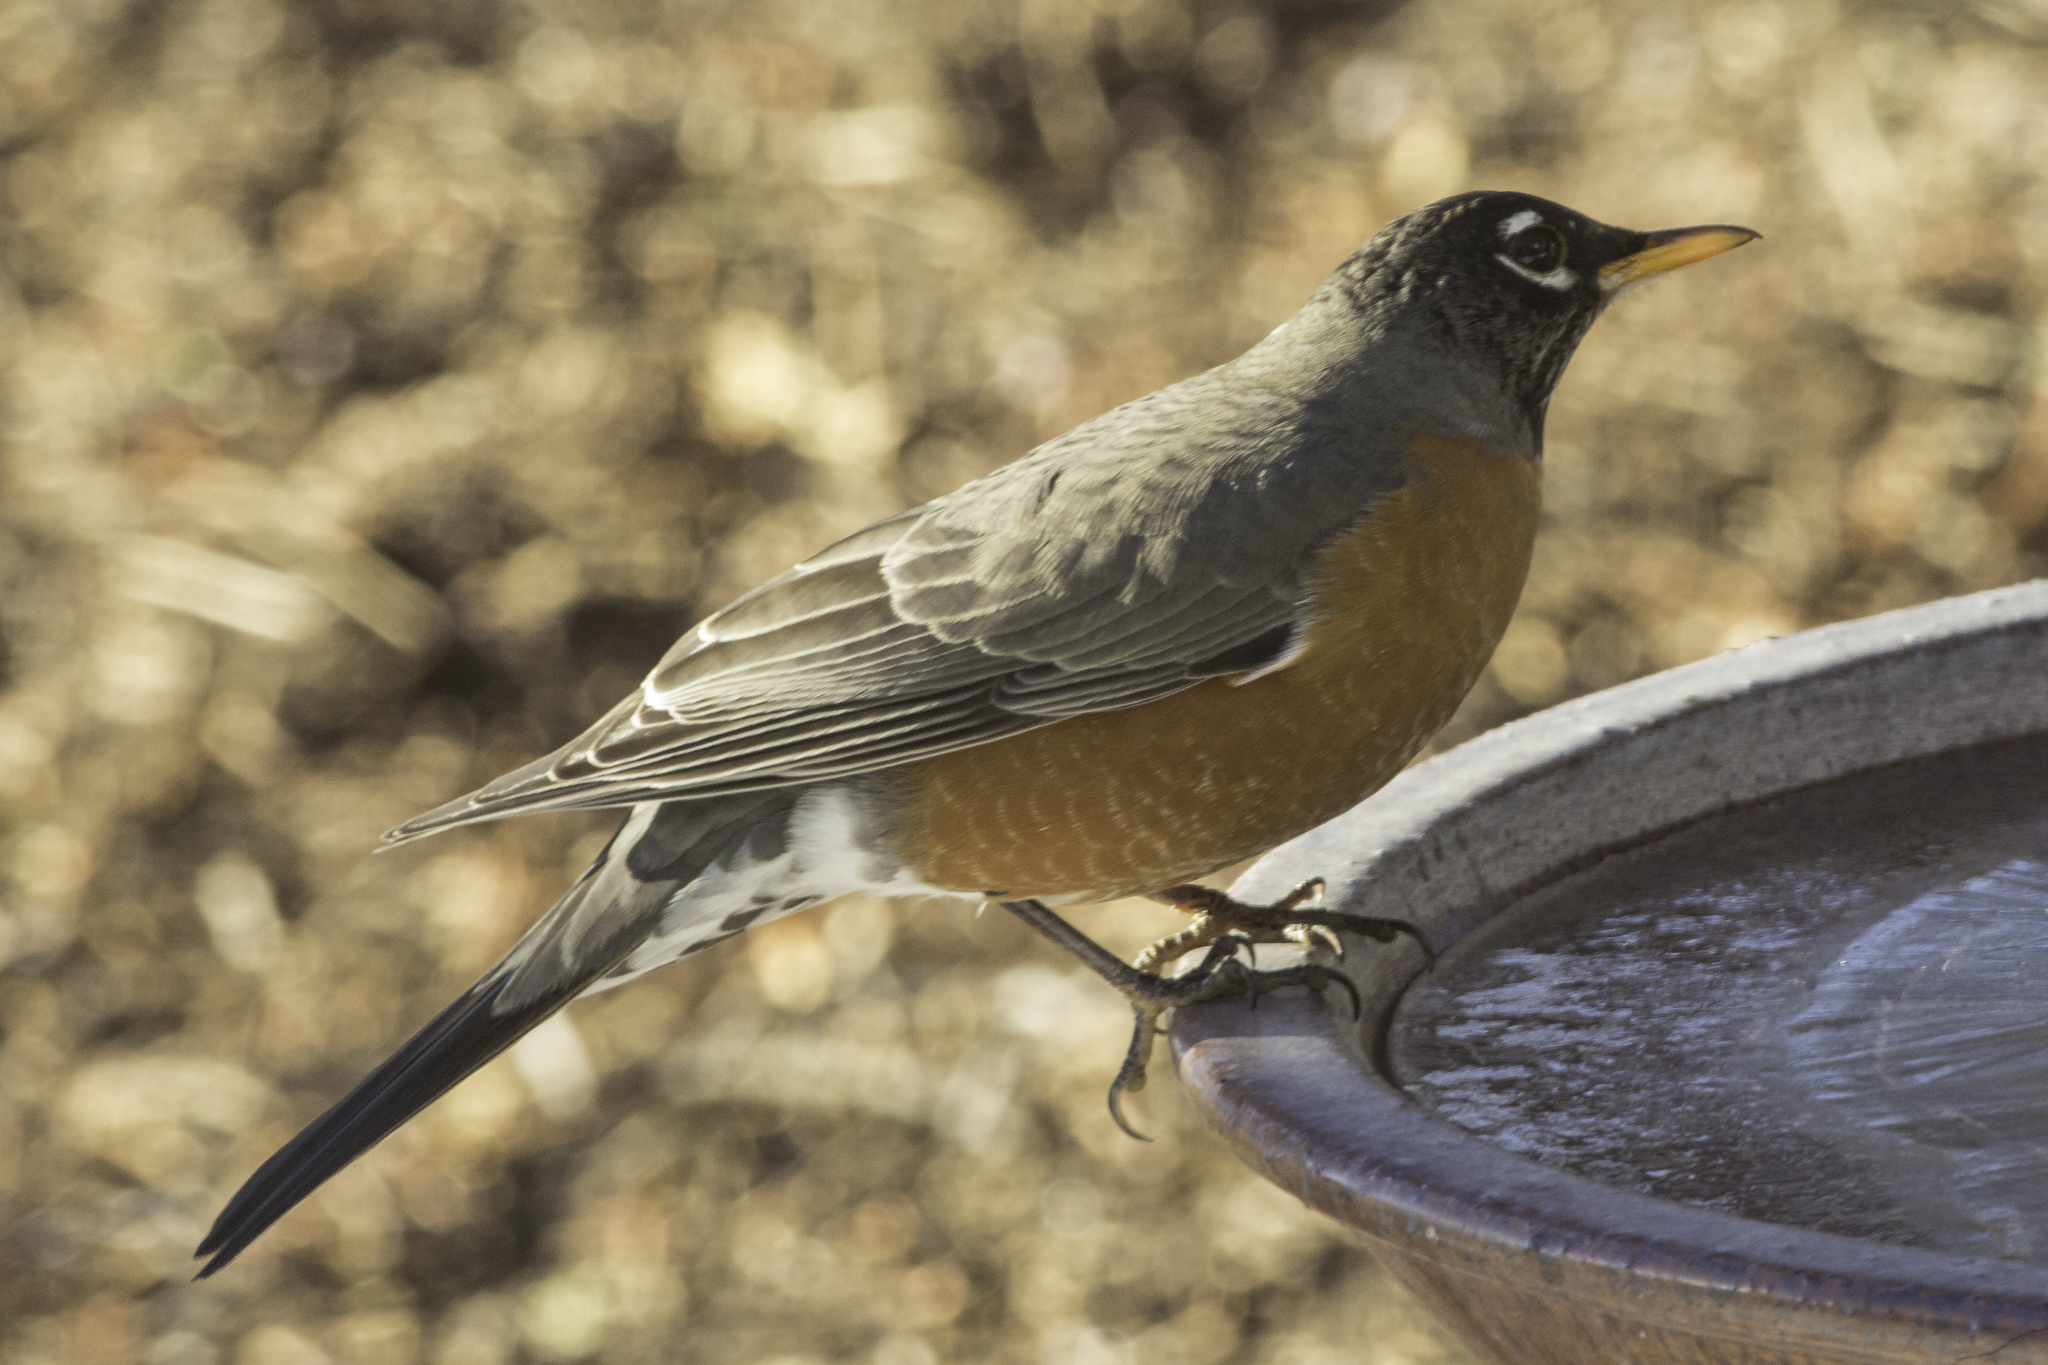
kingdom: Animalia
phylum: Chordata
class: Aves
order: Passeriformes
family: Turdidae
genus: Turdus
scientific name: Turdus migratorius
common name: American robin
